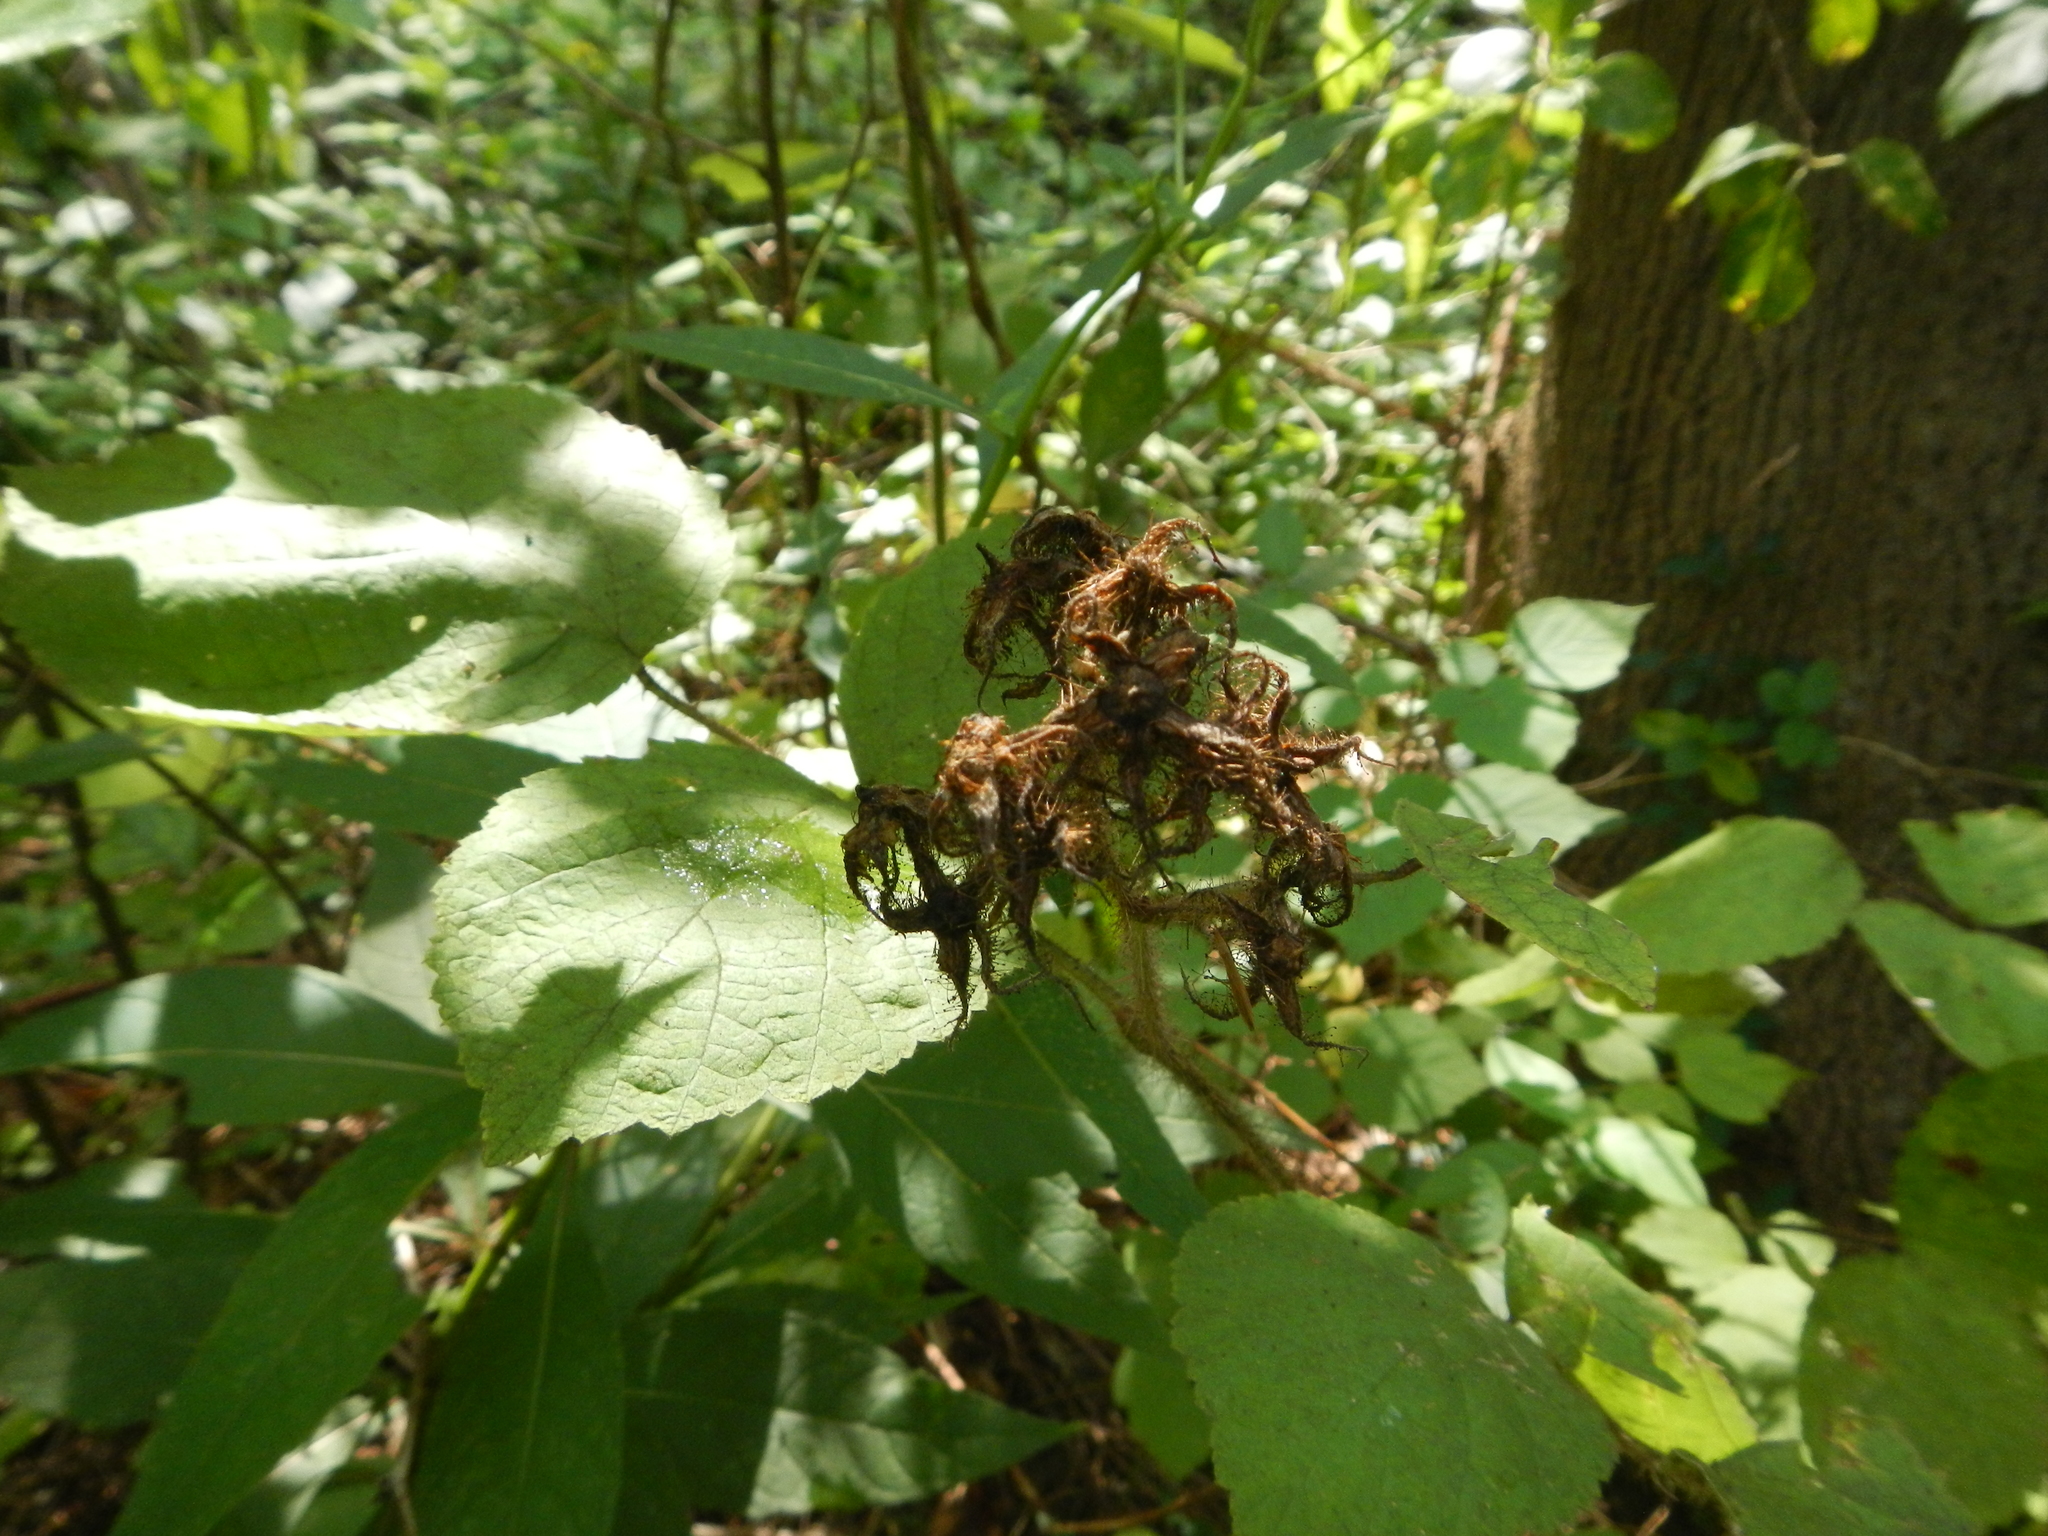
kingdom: Plantae
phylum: Tracheophyta
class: Magnoliopsida
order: Rosales
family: Rosaceae
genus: Rubus
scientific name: Rubus phoenicolasius
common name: Japanese wineberry
